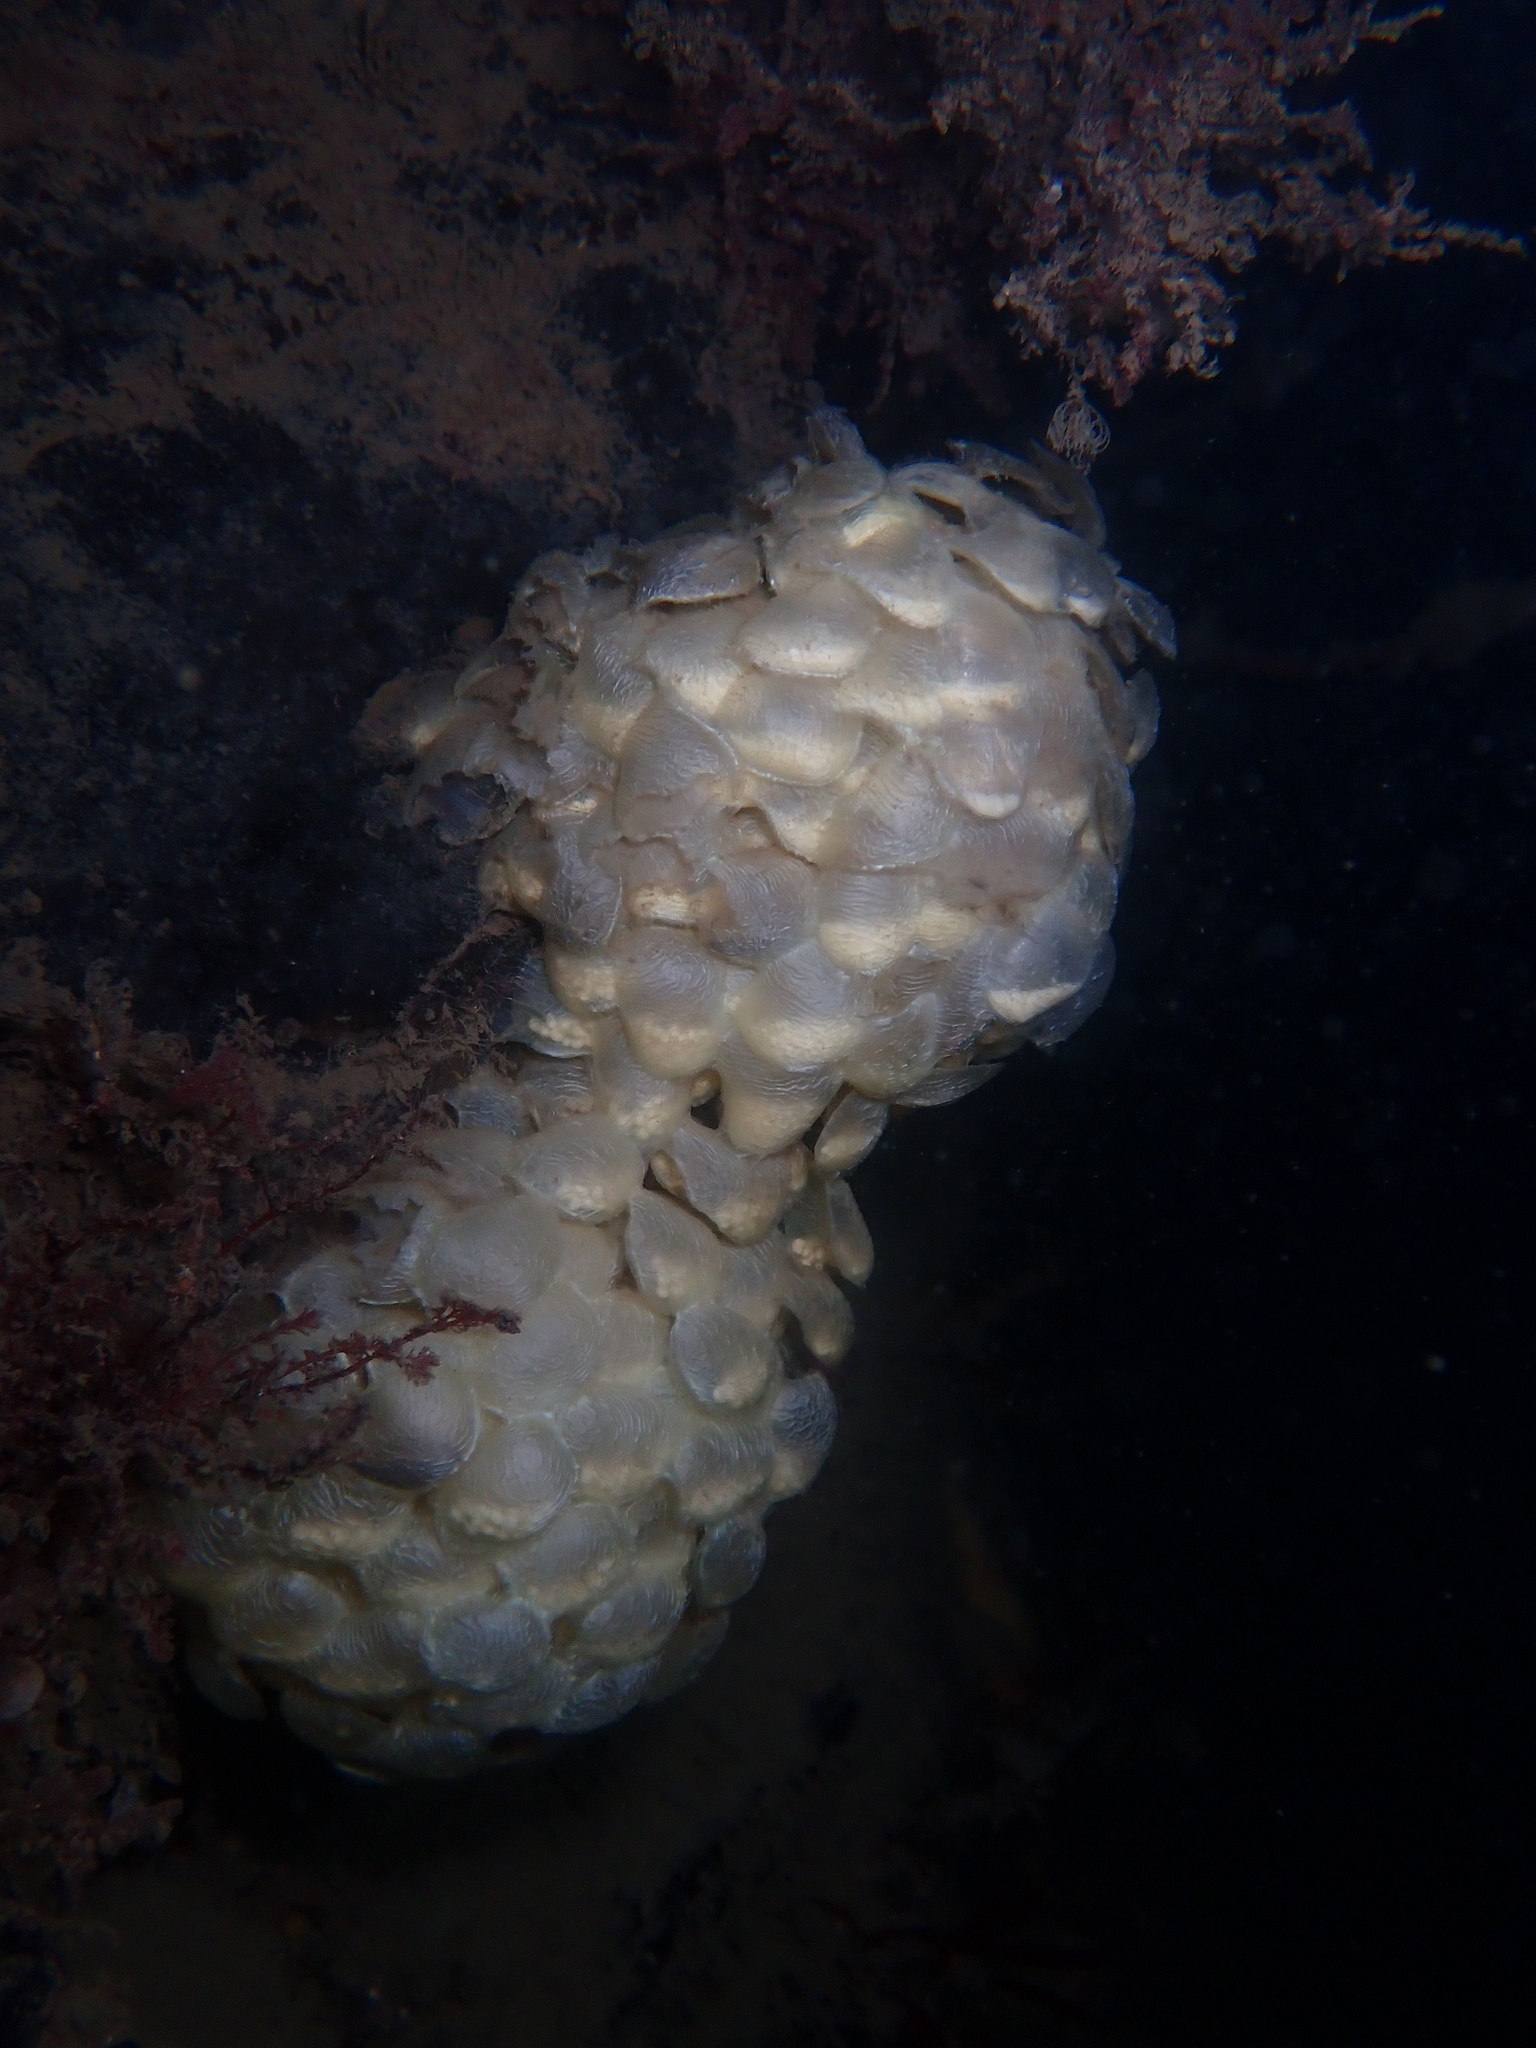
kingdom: Animalia
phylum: Mollusca
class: Gastropoda
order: Neogastropoda
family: Buccinidae
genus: Buccinum
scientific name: Buccinum undatum
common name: Common whelk
